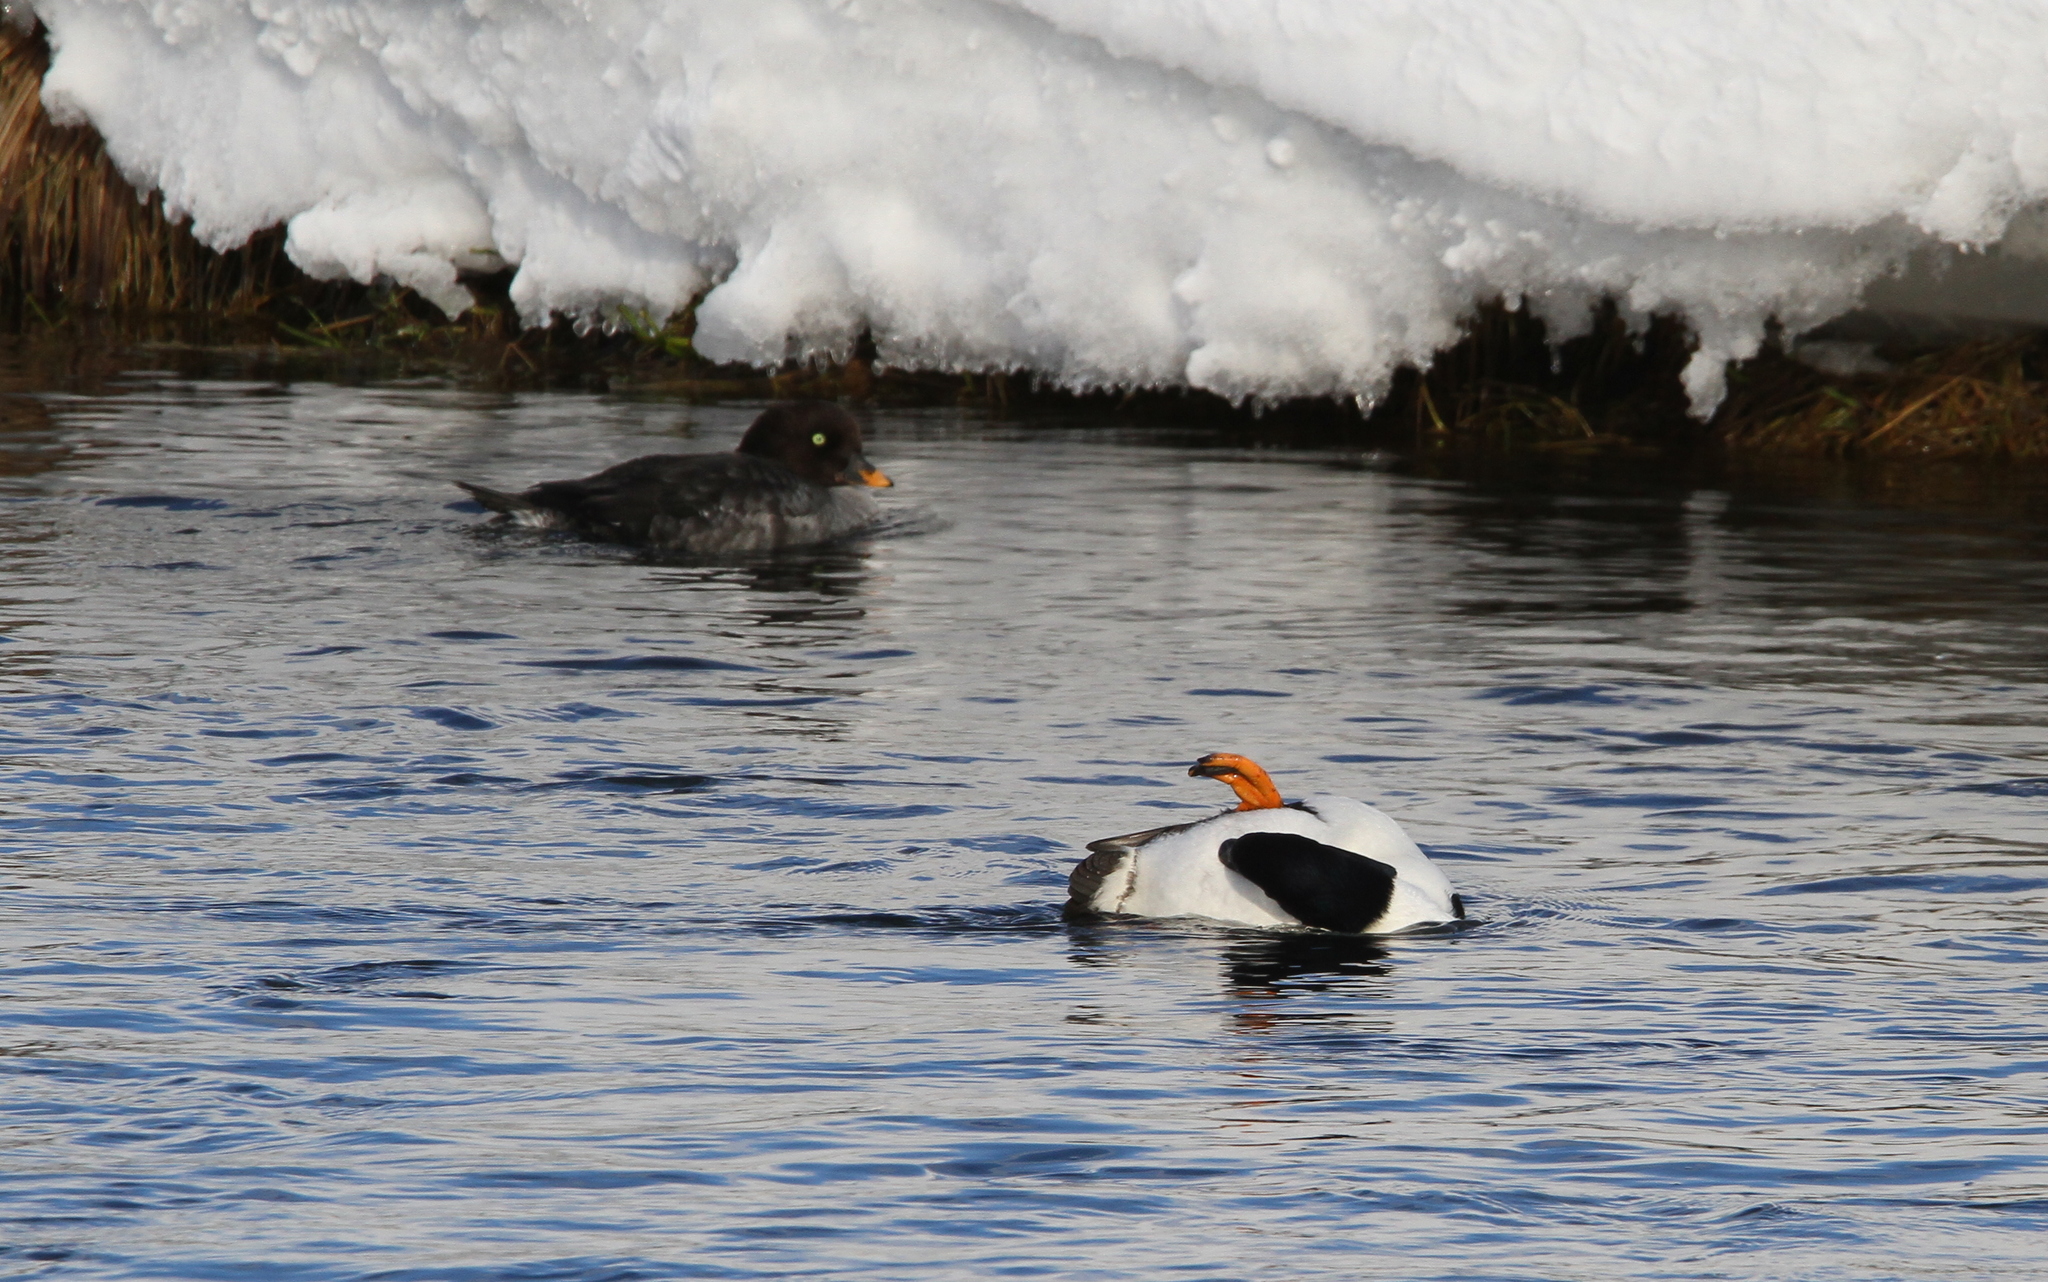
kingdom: Animalia
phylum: Chordata
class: Aves
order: Anseriformes
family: Anatidae
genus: Bucephala
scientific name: Bucephala islandica
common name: Barrow's goldeneye
